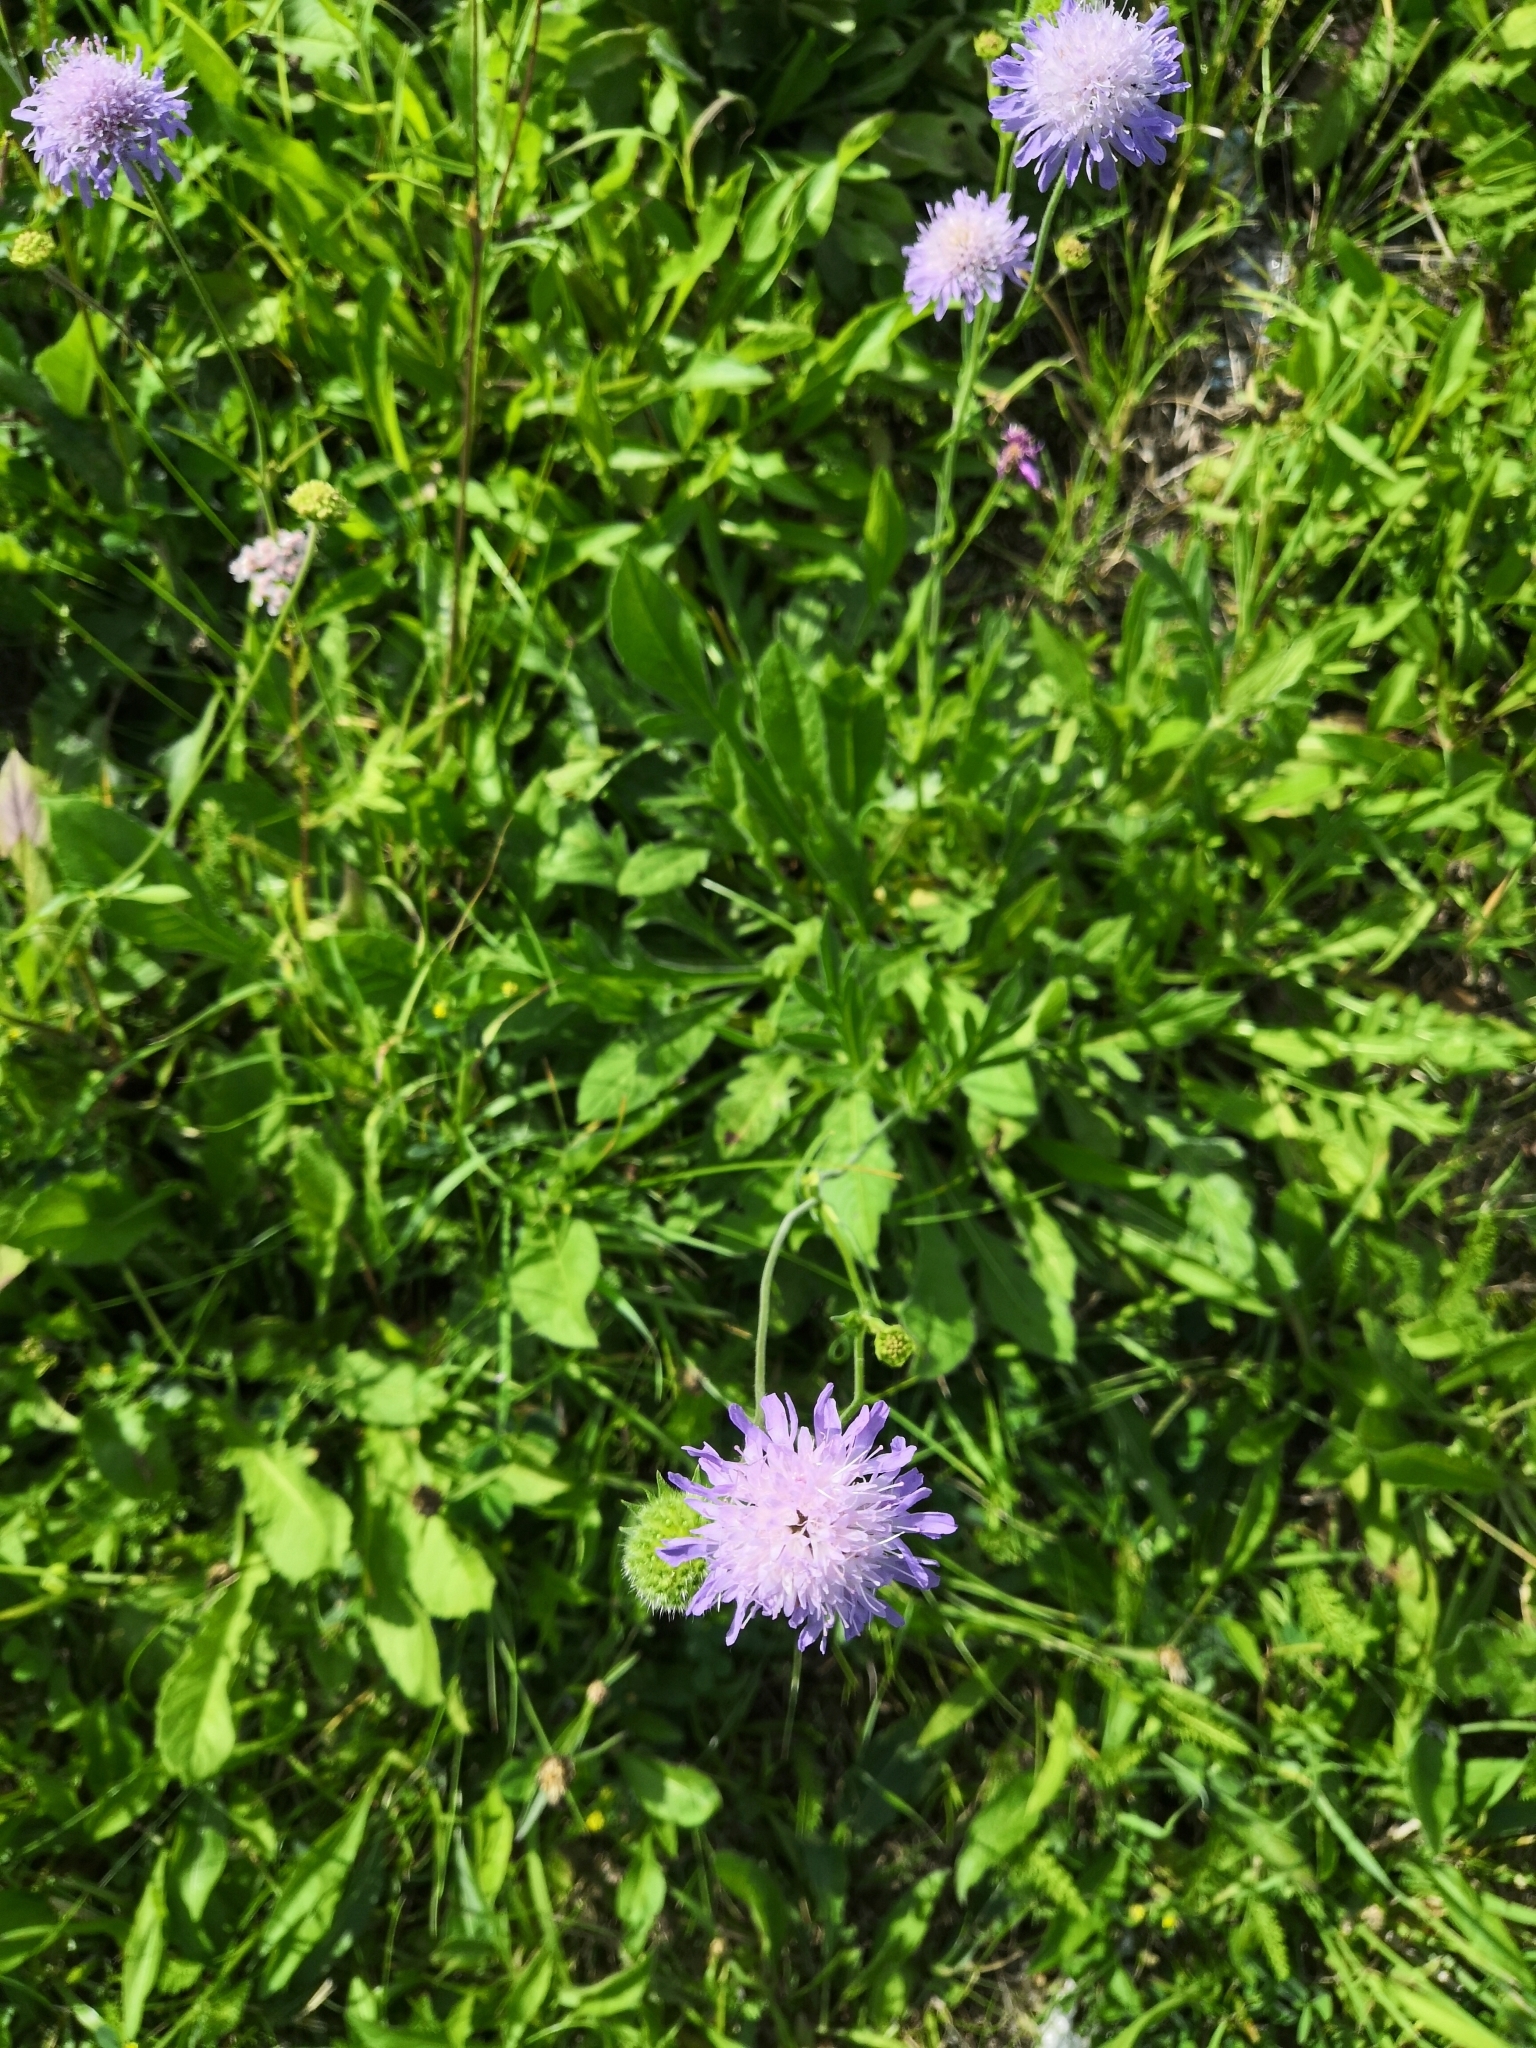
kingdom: Plantae
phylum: Tracheophyta
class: Magnoliopsida
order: Dipsacales
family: Caprifoliaceae
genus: Knautia
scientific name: Knautia arvensis
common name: Field scabiosa
